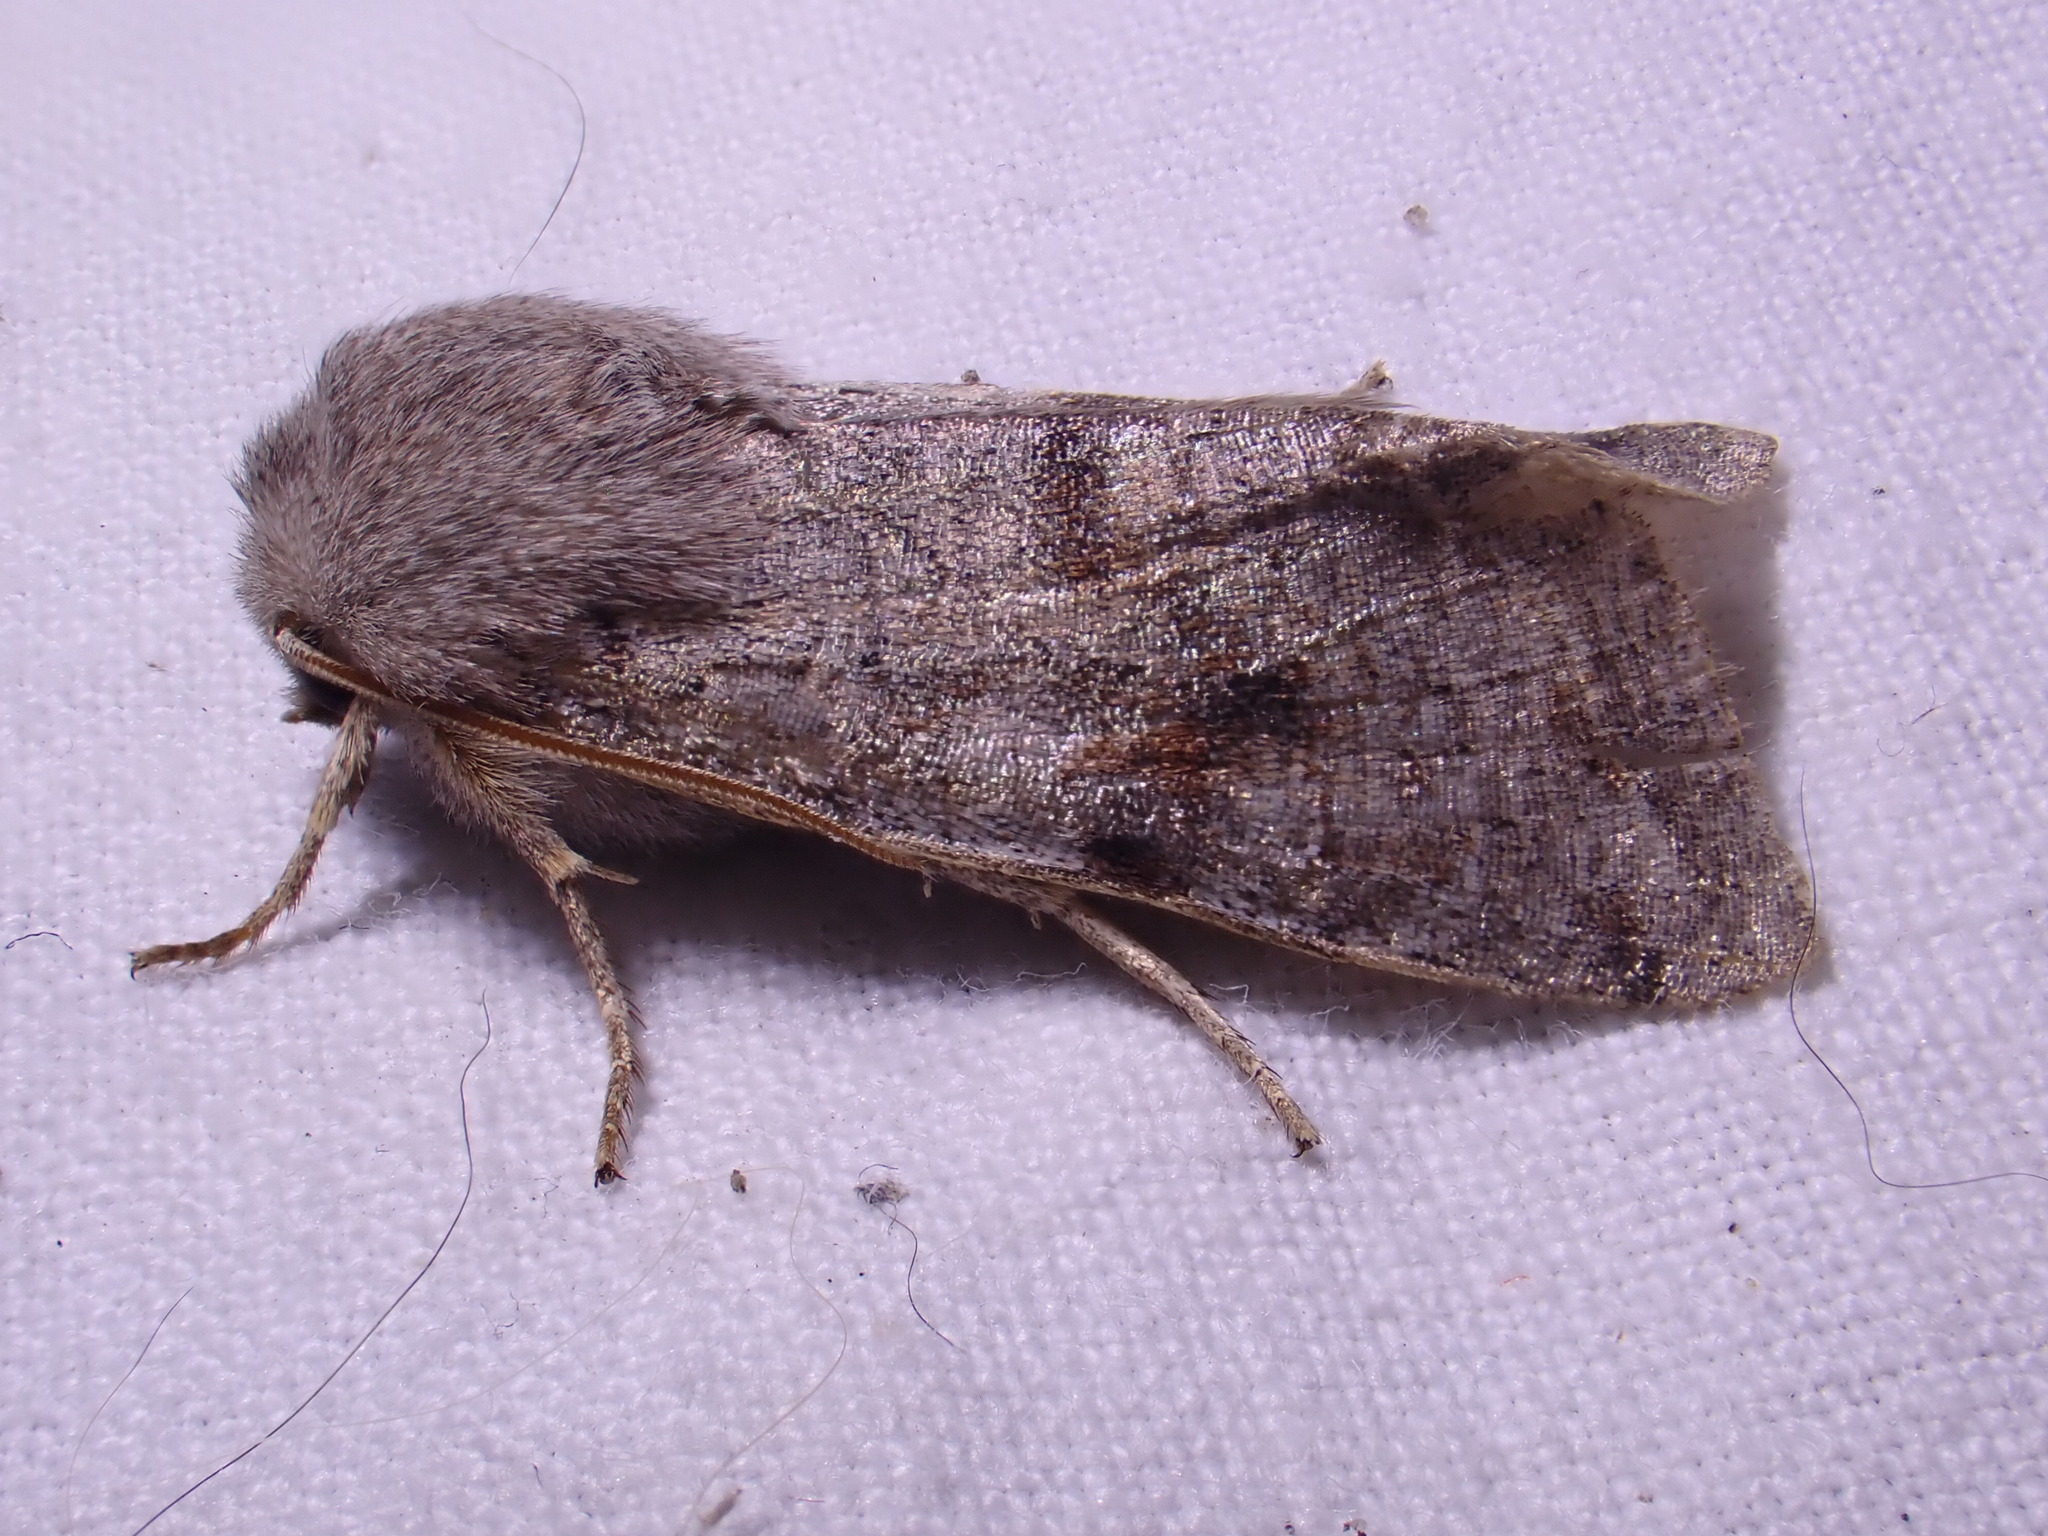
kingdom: Animalia
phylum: Arthropoda
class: Insecta
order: Lepidoptera
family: Noctuidae
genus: Orthosia
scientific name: Orthosia incerta
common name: Clouded drab
